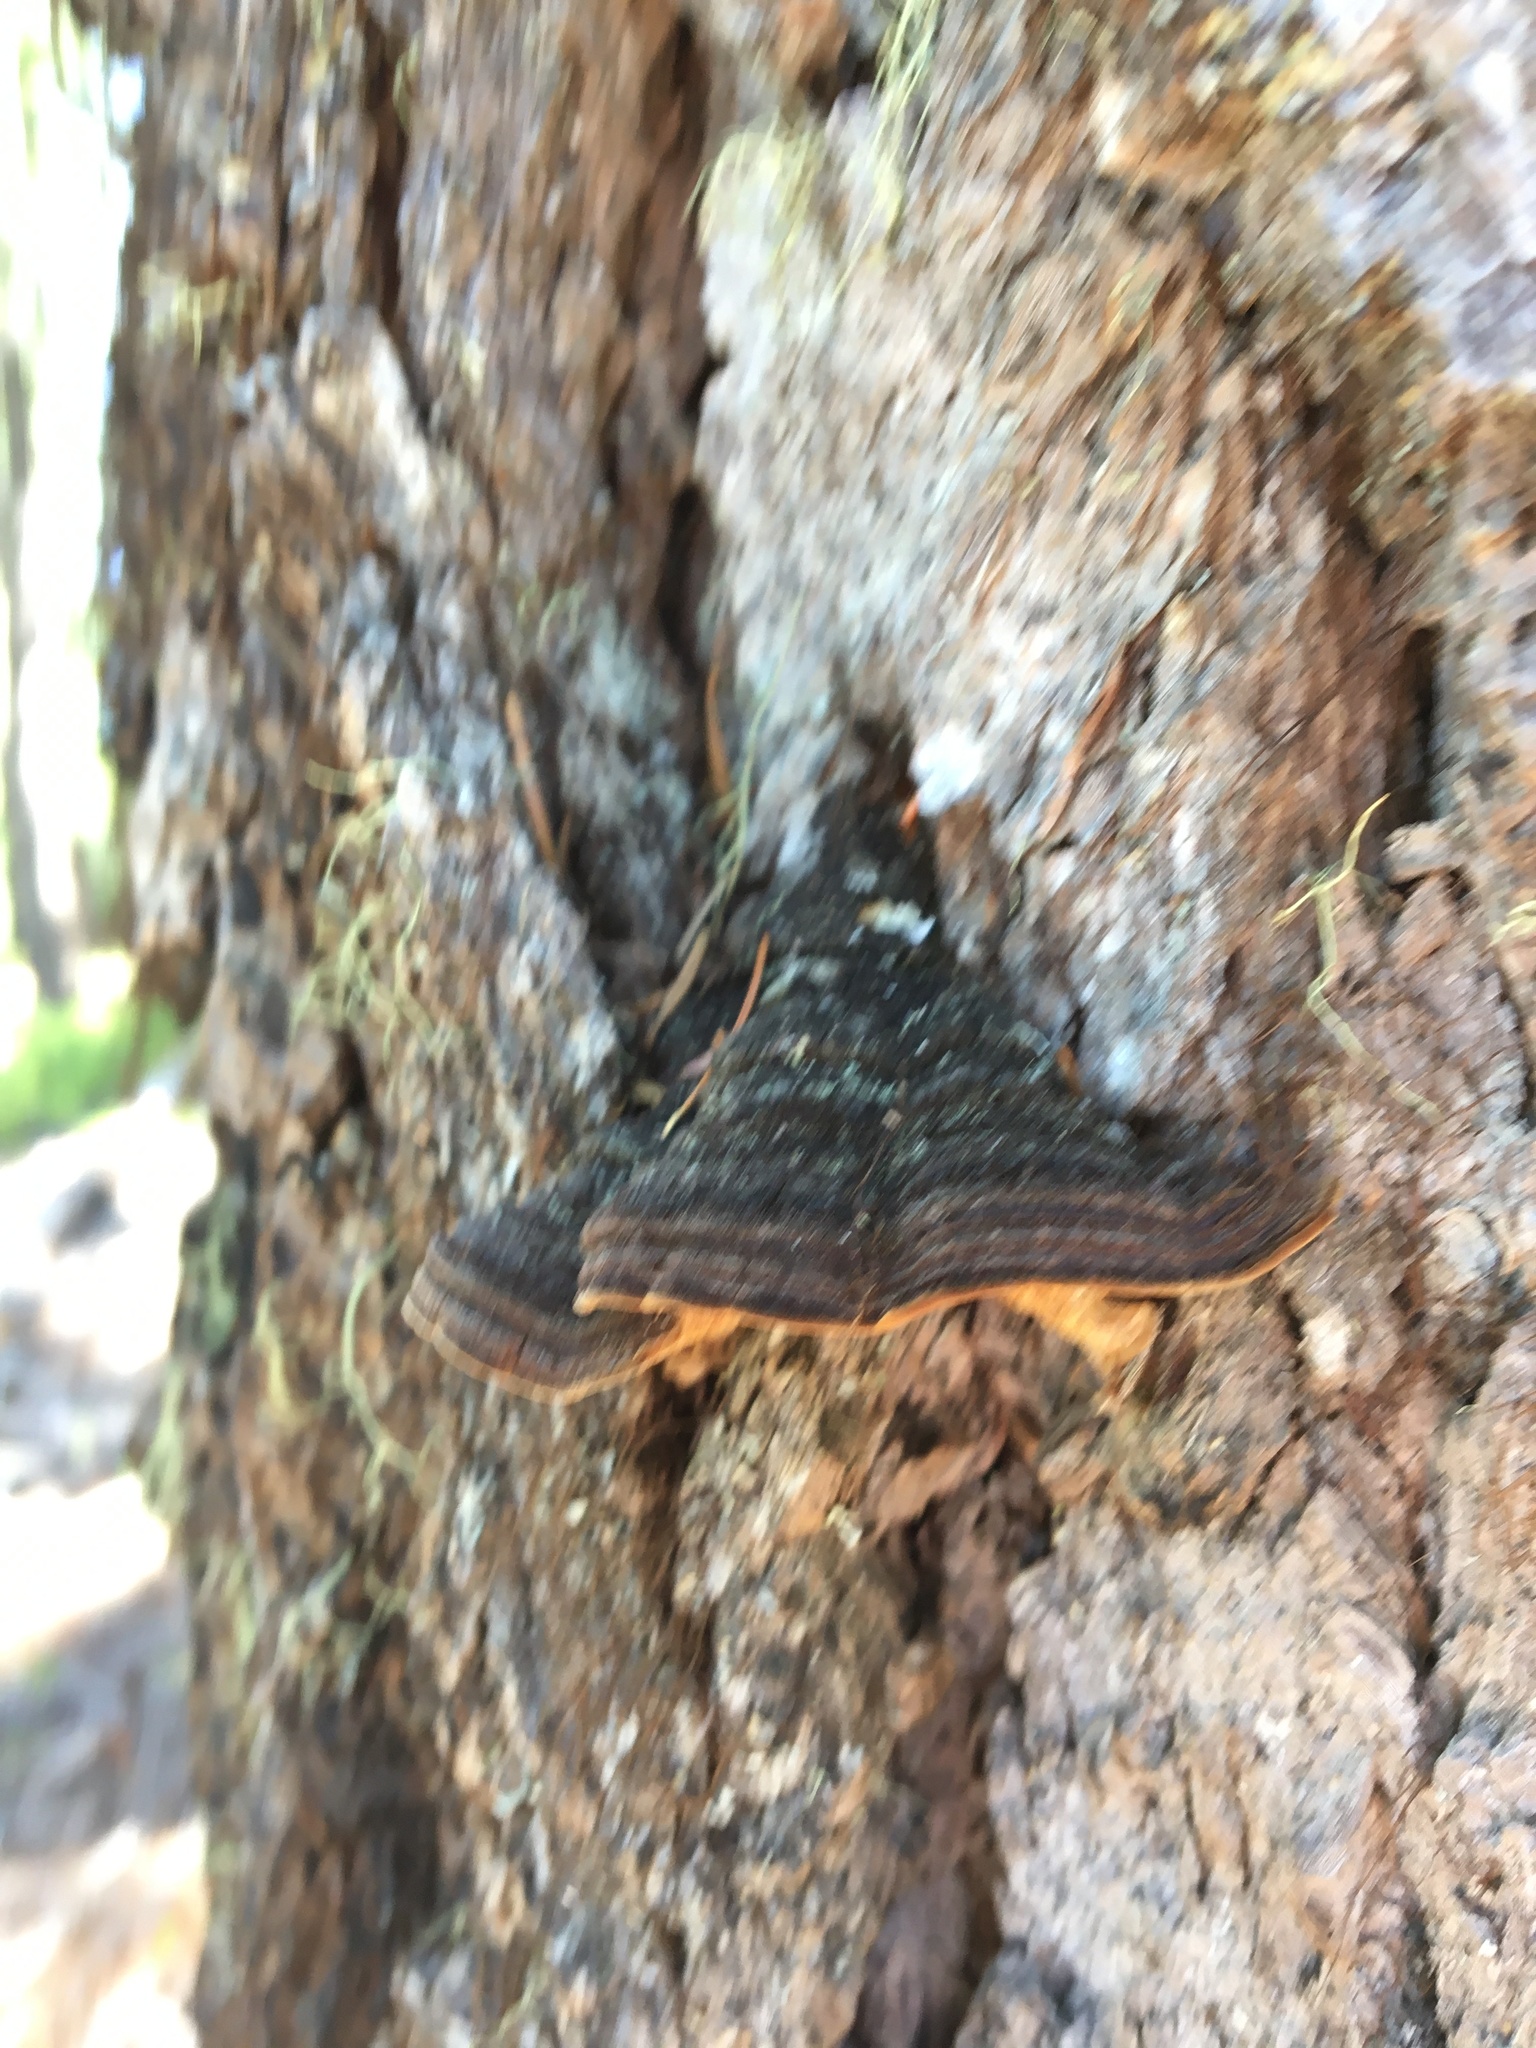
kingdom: Fungi
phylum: Basidiomycota
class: Agaricomycetes
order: Hymenochaetales
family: Hymenochaetaceae
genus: Porodaedalea
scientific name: Porodaedalea pini
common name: Pine bracket
